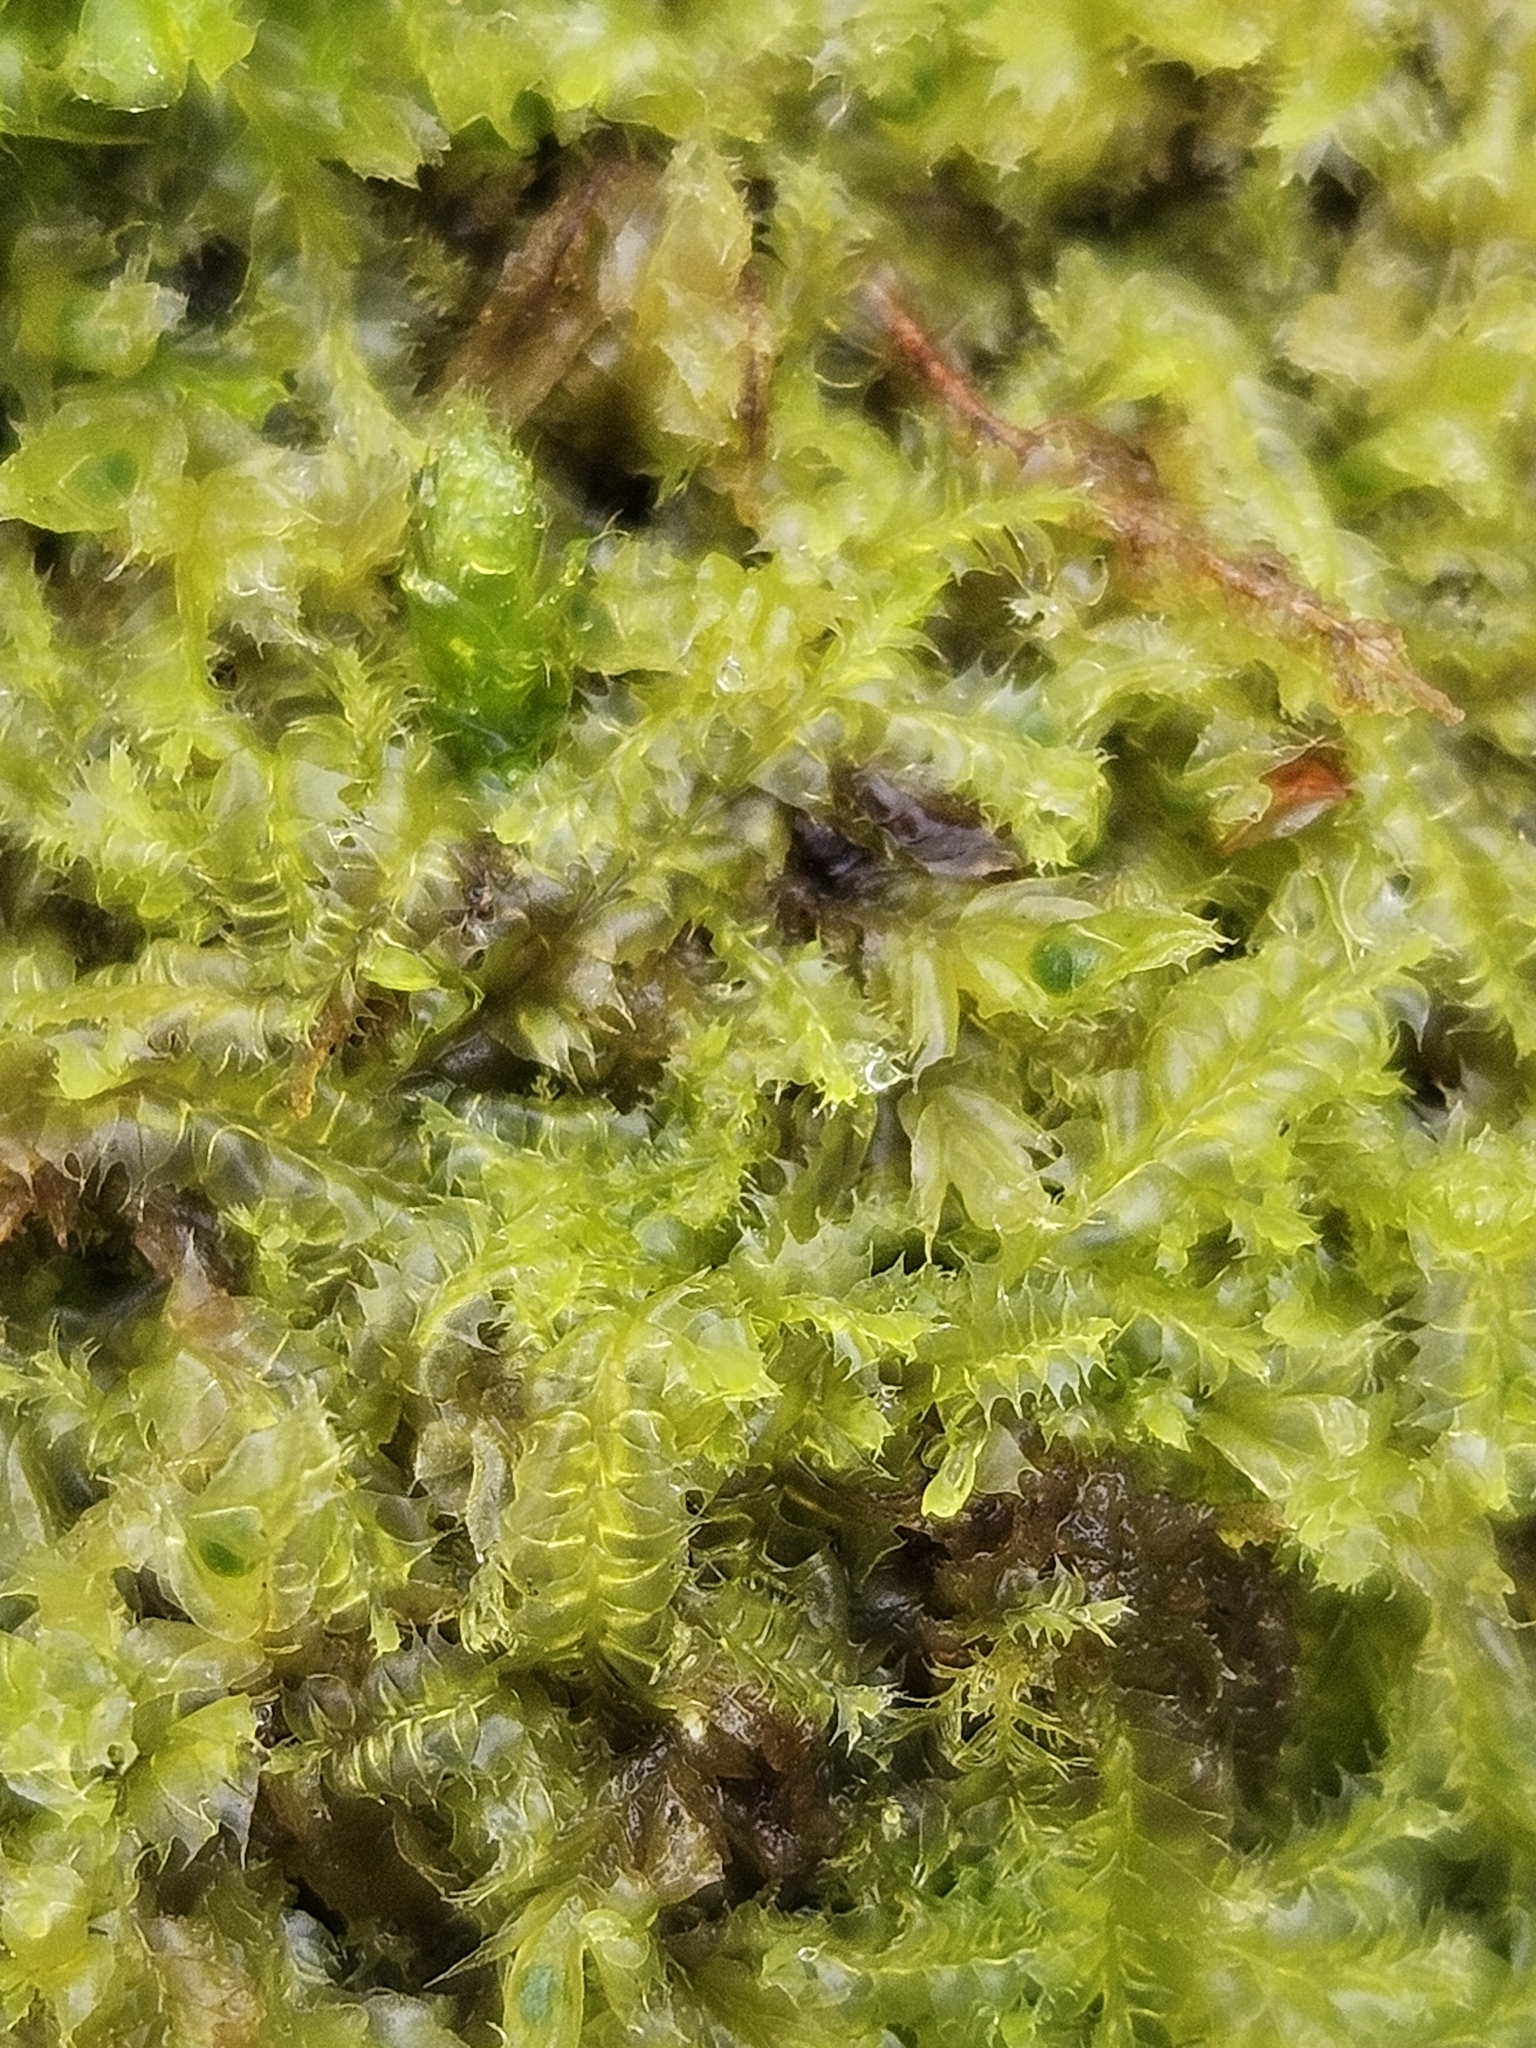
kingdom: Plantae
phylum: Marchantiophyta
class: Jungermanniopsida
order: Jungermanniales
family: Lophocoleaceae
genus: Lophocolea
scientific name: Lophocolea bidentata
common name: Bifid crestwort
